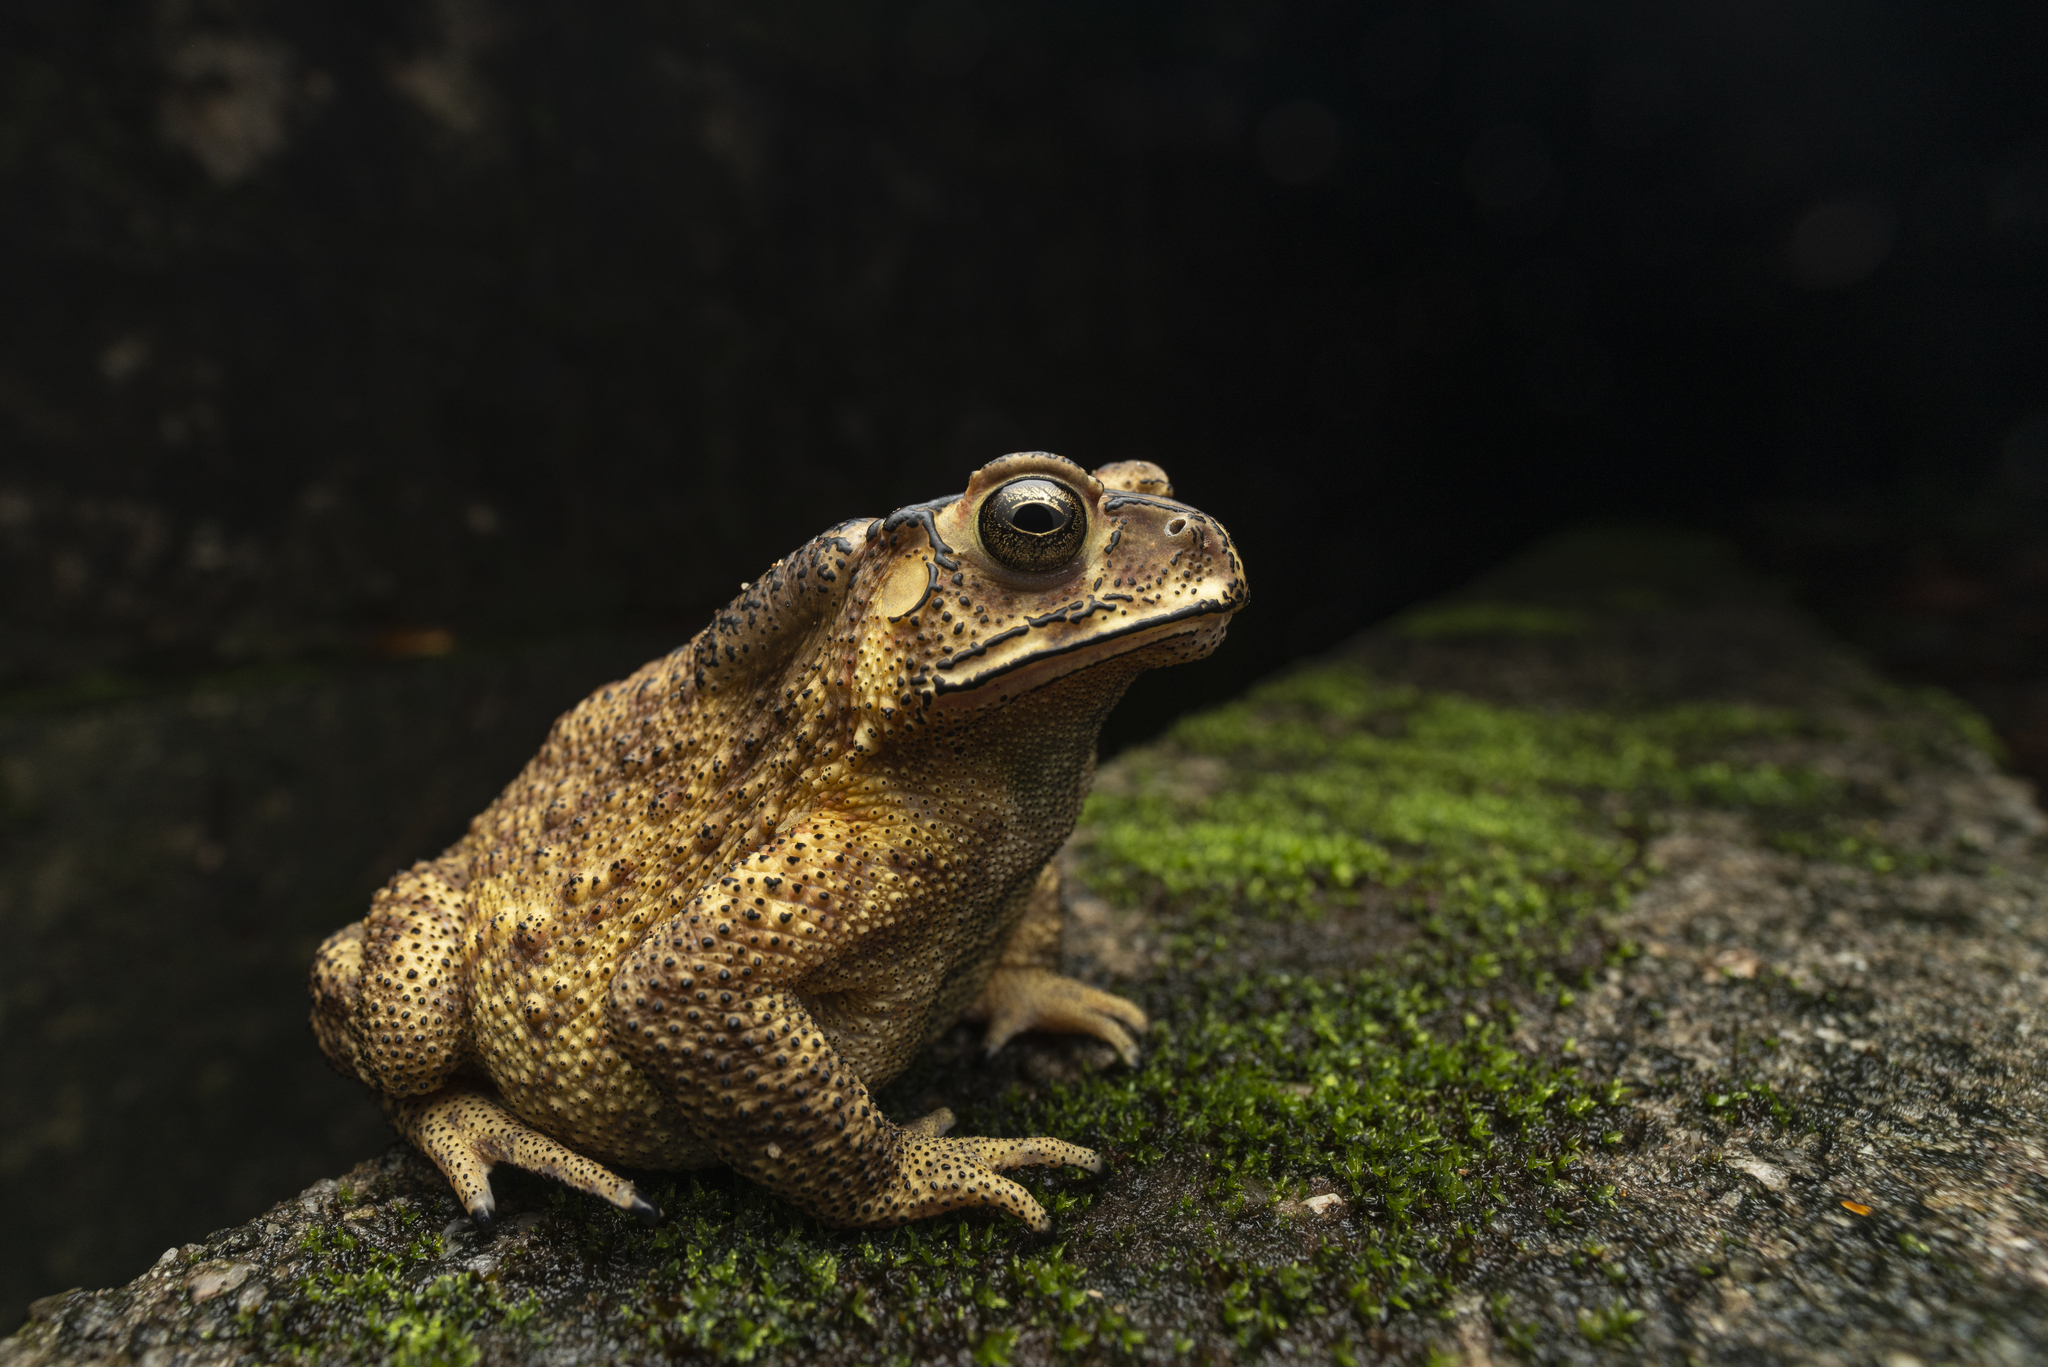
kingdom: Animalia
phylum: Chordata
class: Amphibia
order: Anura
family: Bufonidae
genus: Duttaphrynus
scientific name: Duttaphrynus melanostictus
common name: Common sunda toad
